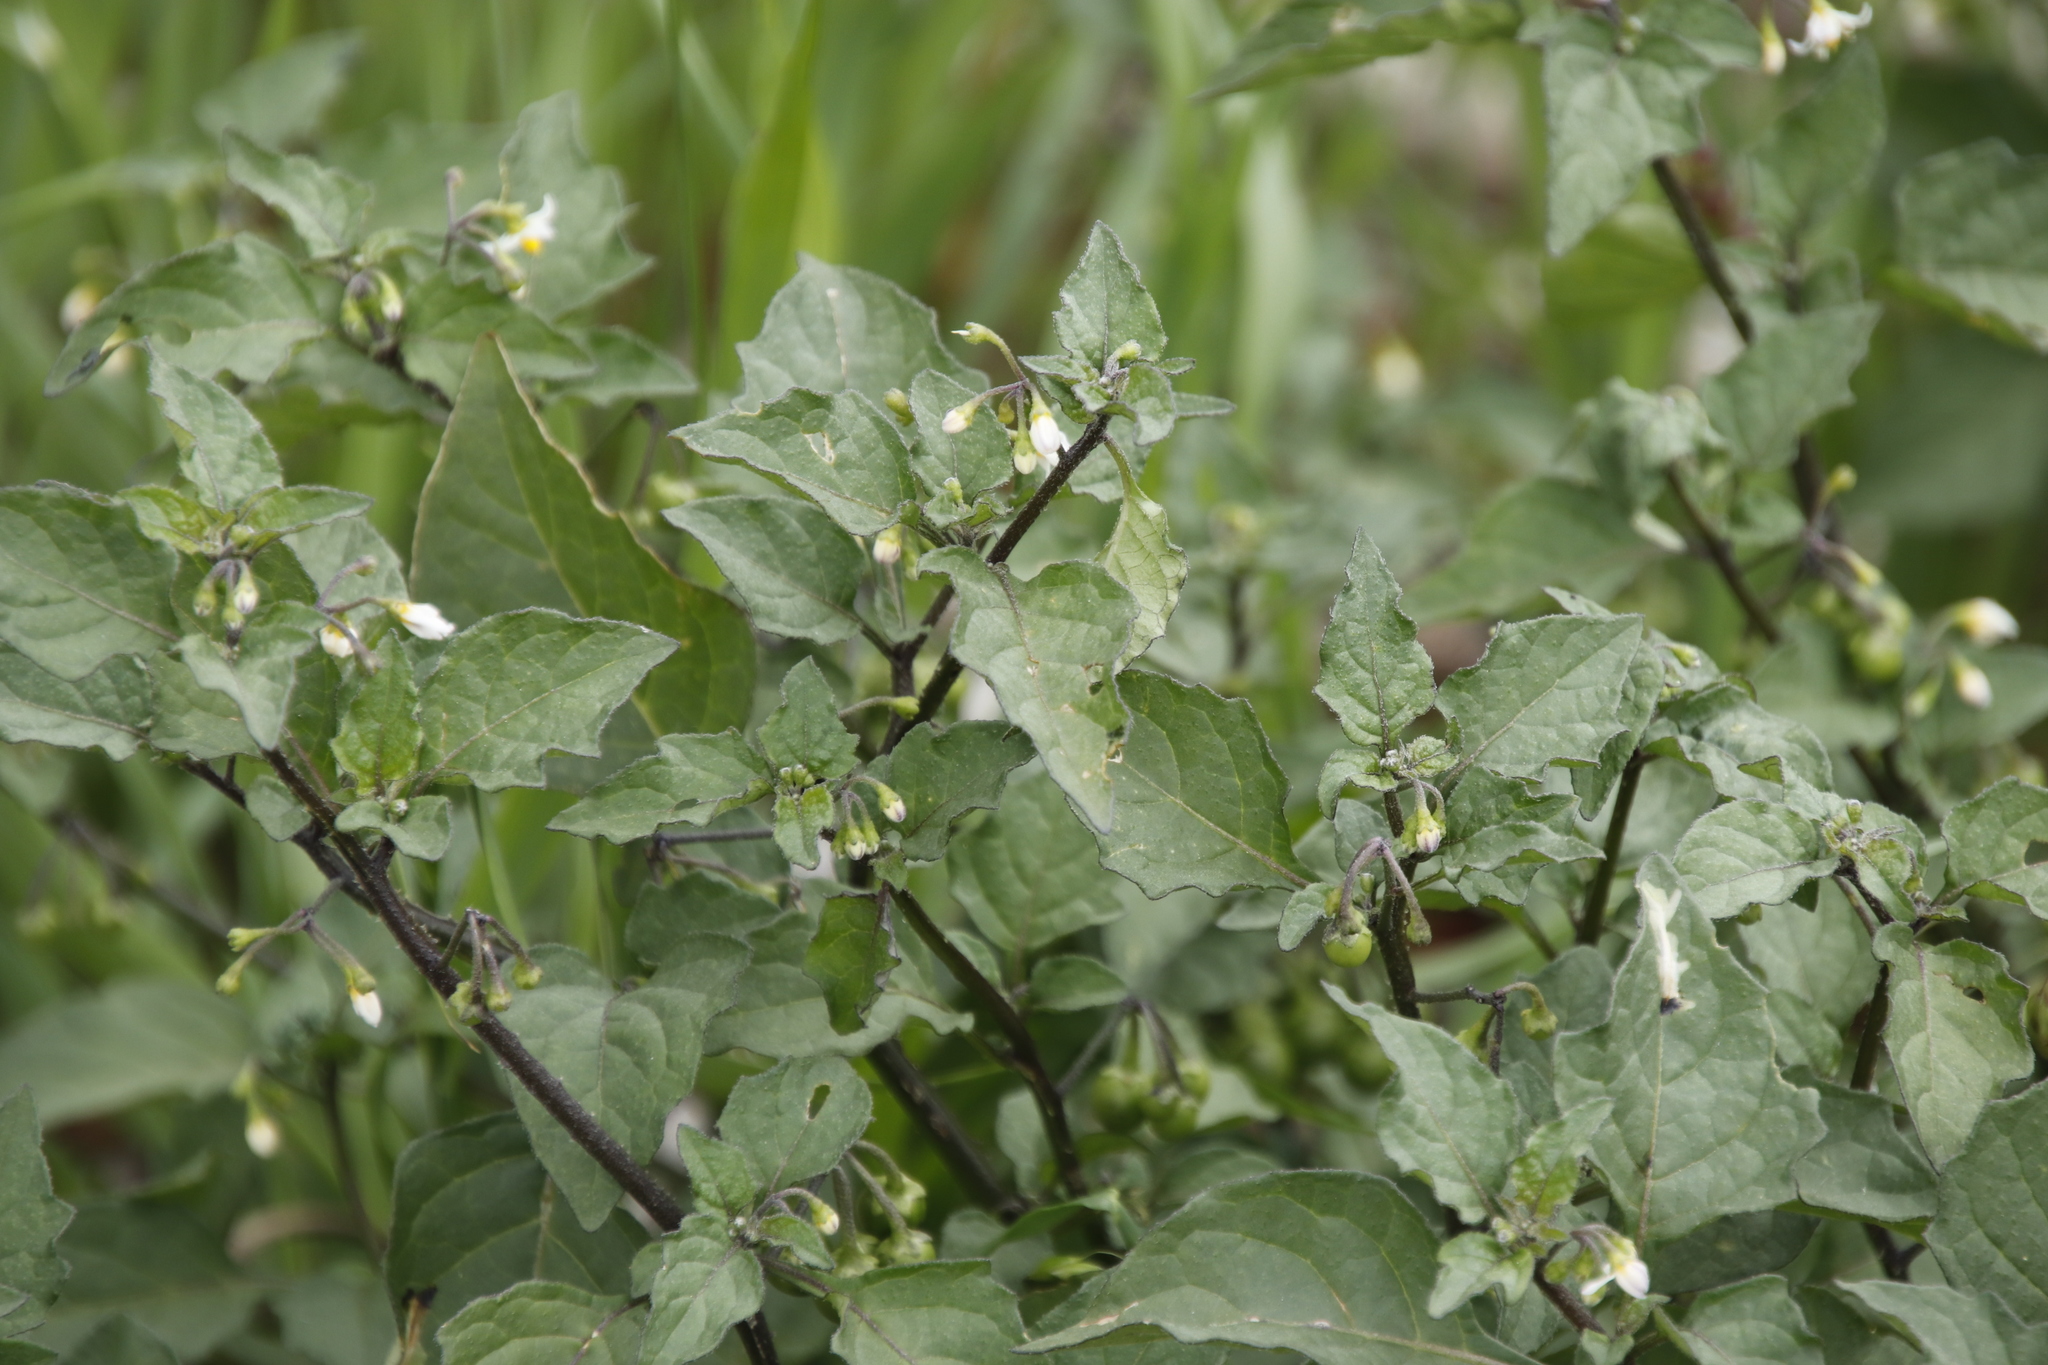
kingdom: Plantae
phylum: Tracheophyta
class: Magnoliopsida
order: Solanales
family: Solanaceae
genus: Solanum
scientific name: Solanum nigrum
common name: Black nightshade
